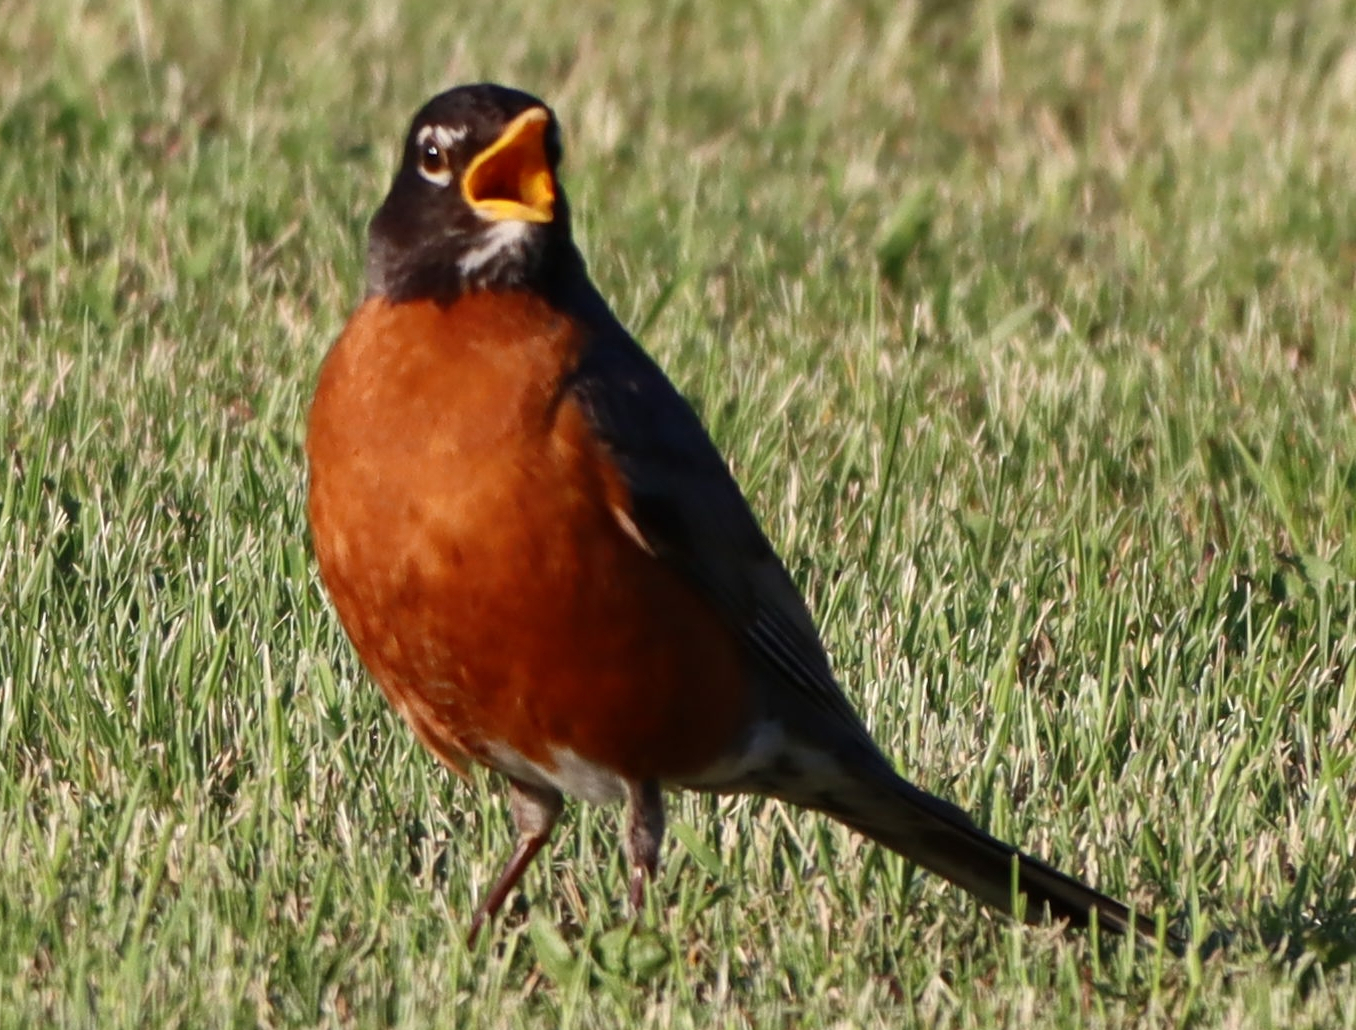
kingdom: Animalia
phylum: Chordata
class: Aves
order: Passeriformes
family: Turdidae
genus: Turdus
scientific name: Turdus migratorius
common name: American robin
